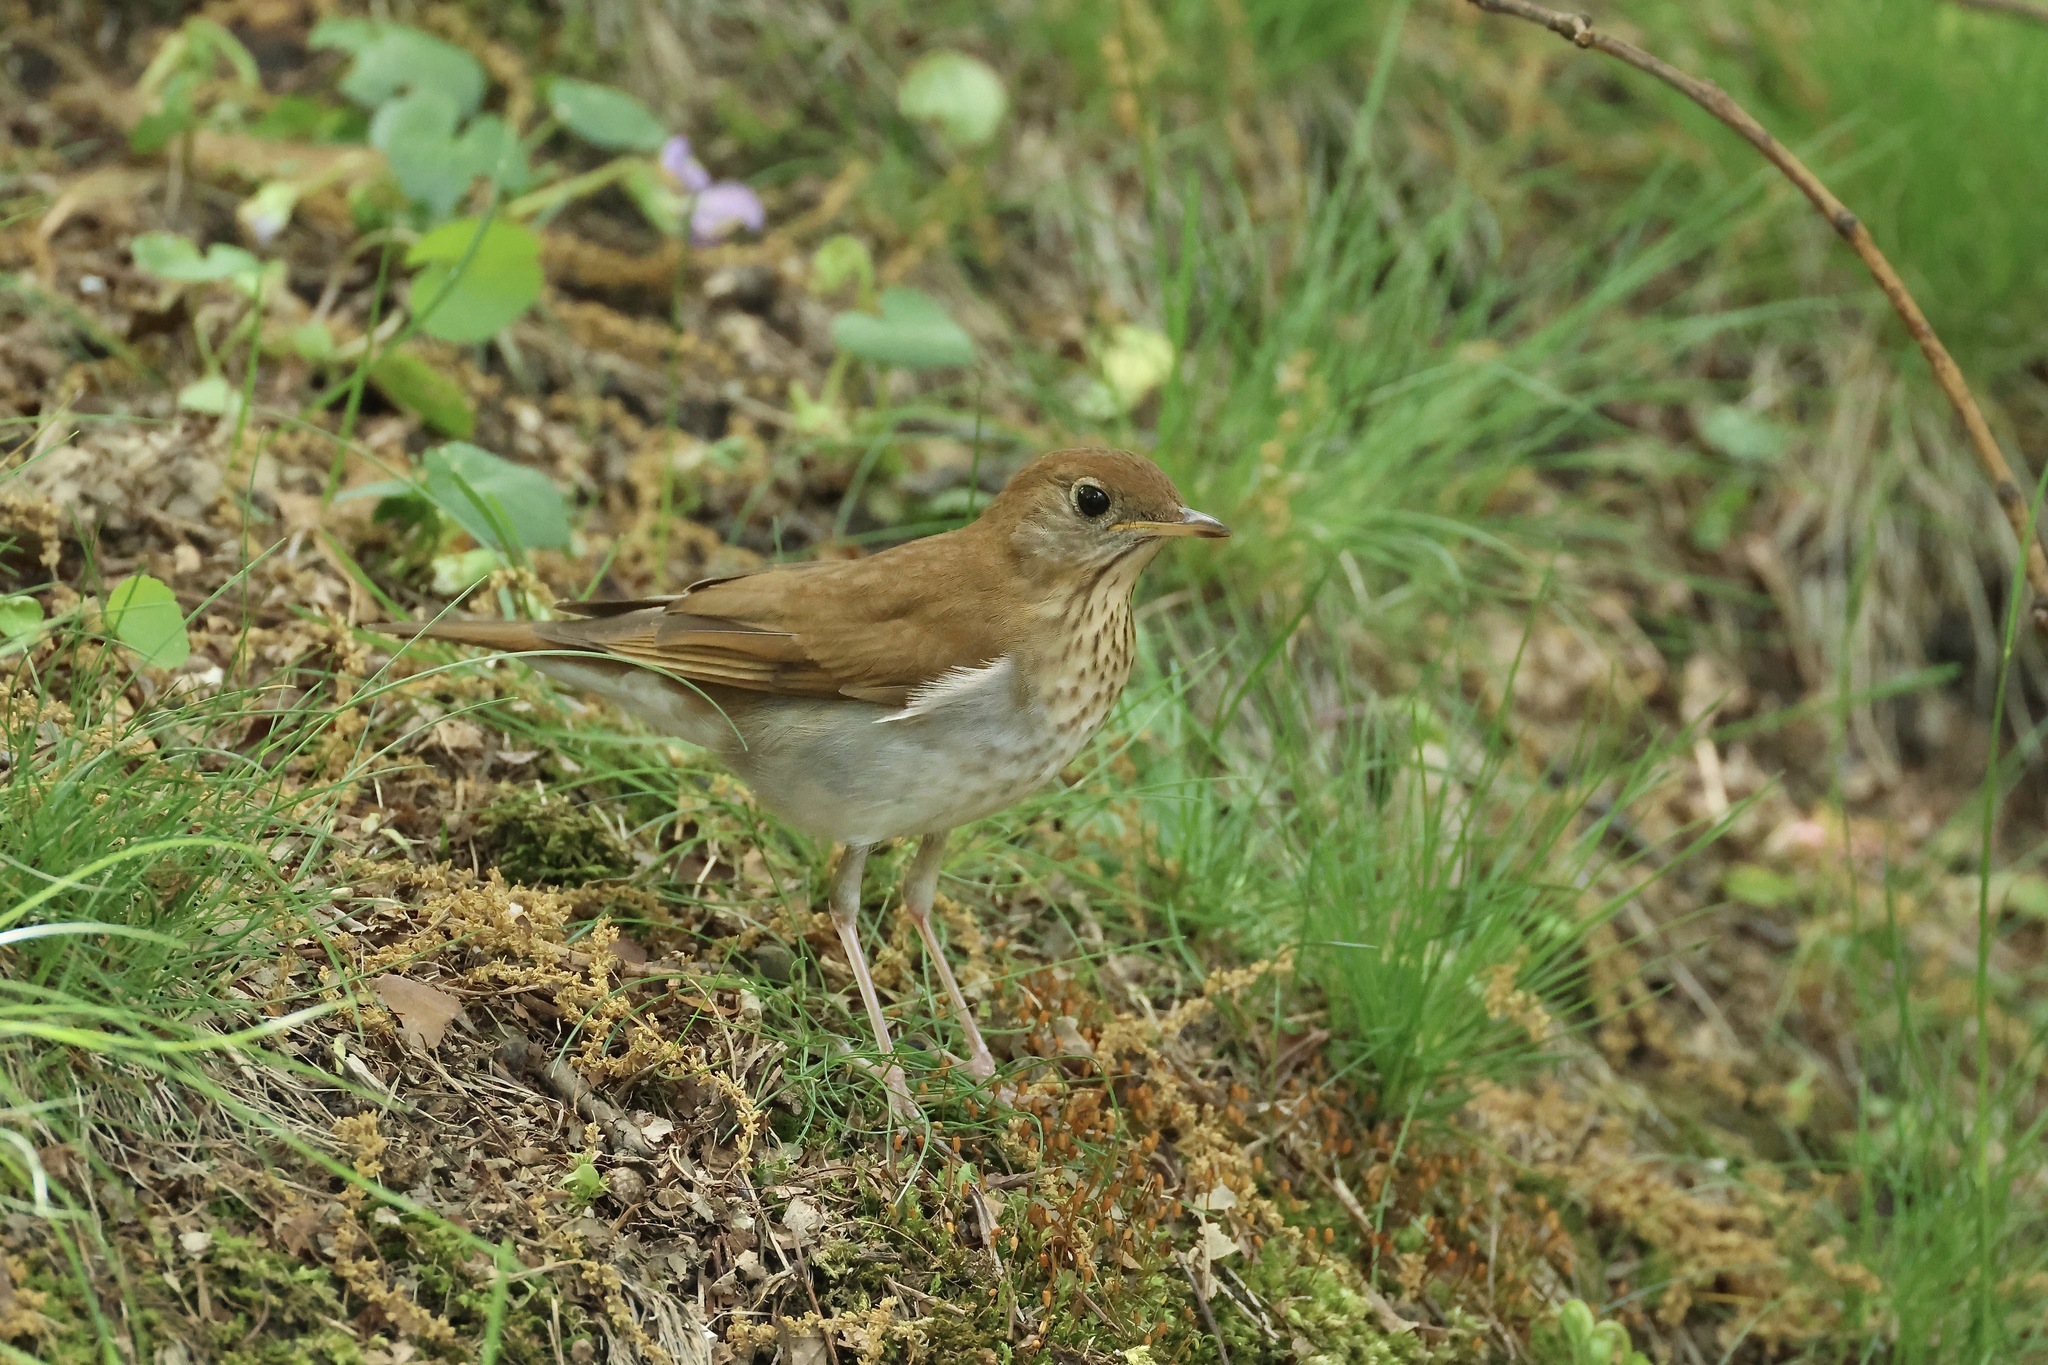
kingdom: Animalia
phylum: Chordata
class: Aves
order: Passeriformes
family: Turdidae
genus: Catharus
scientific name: Catharus fuscescens
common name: Veery
